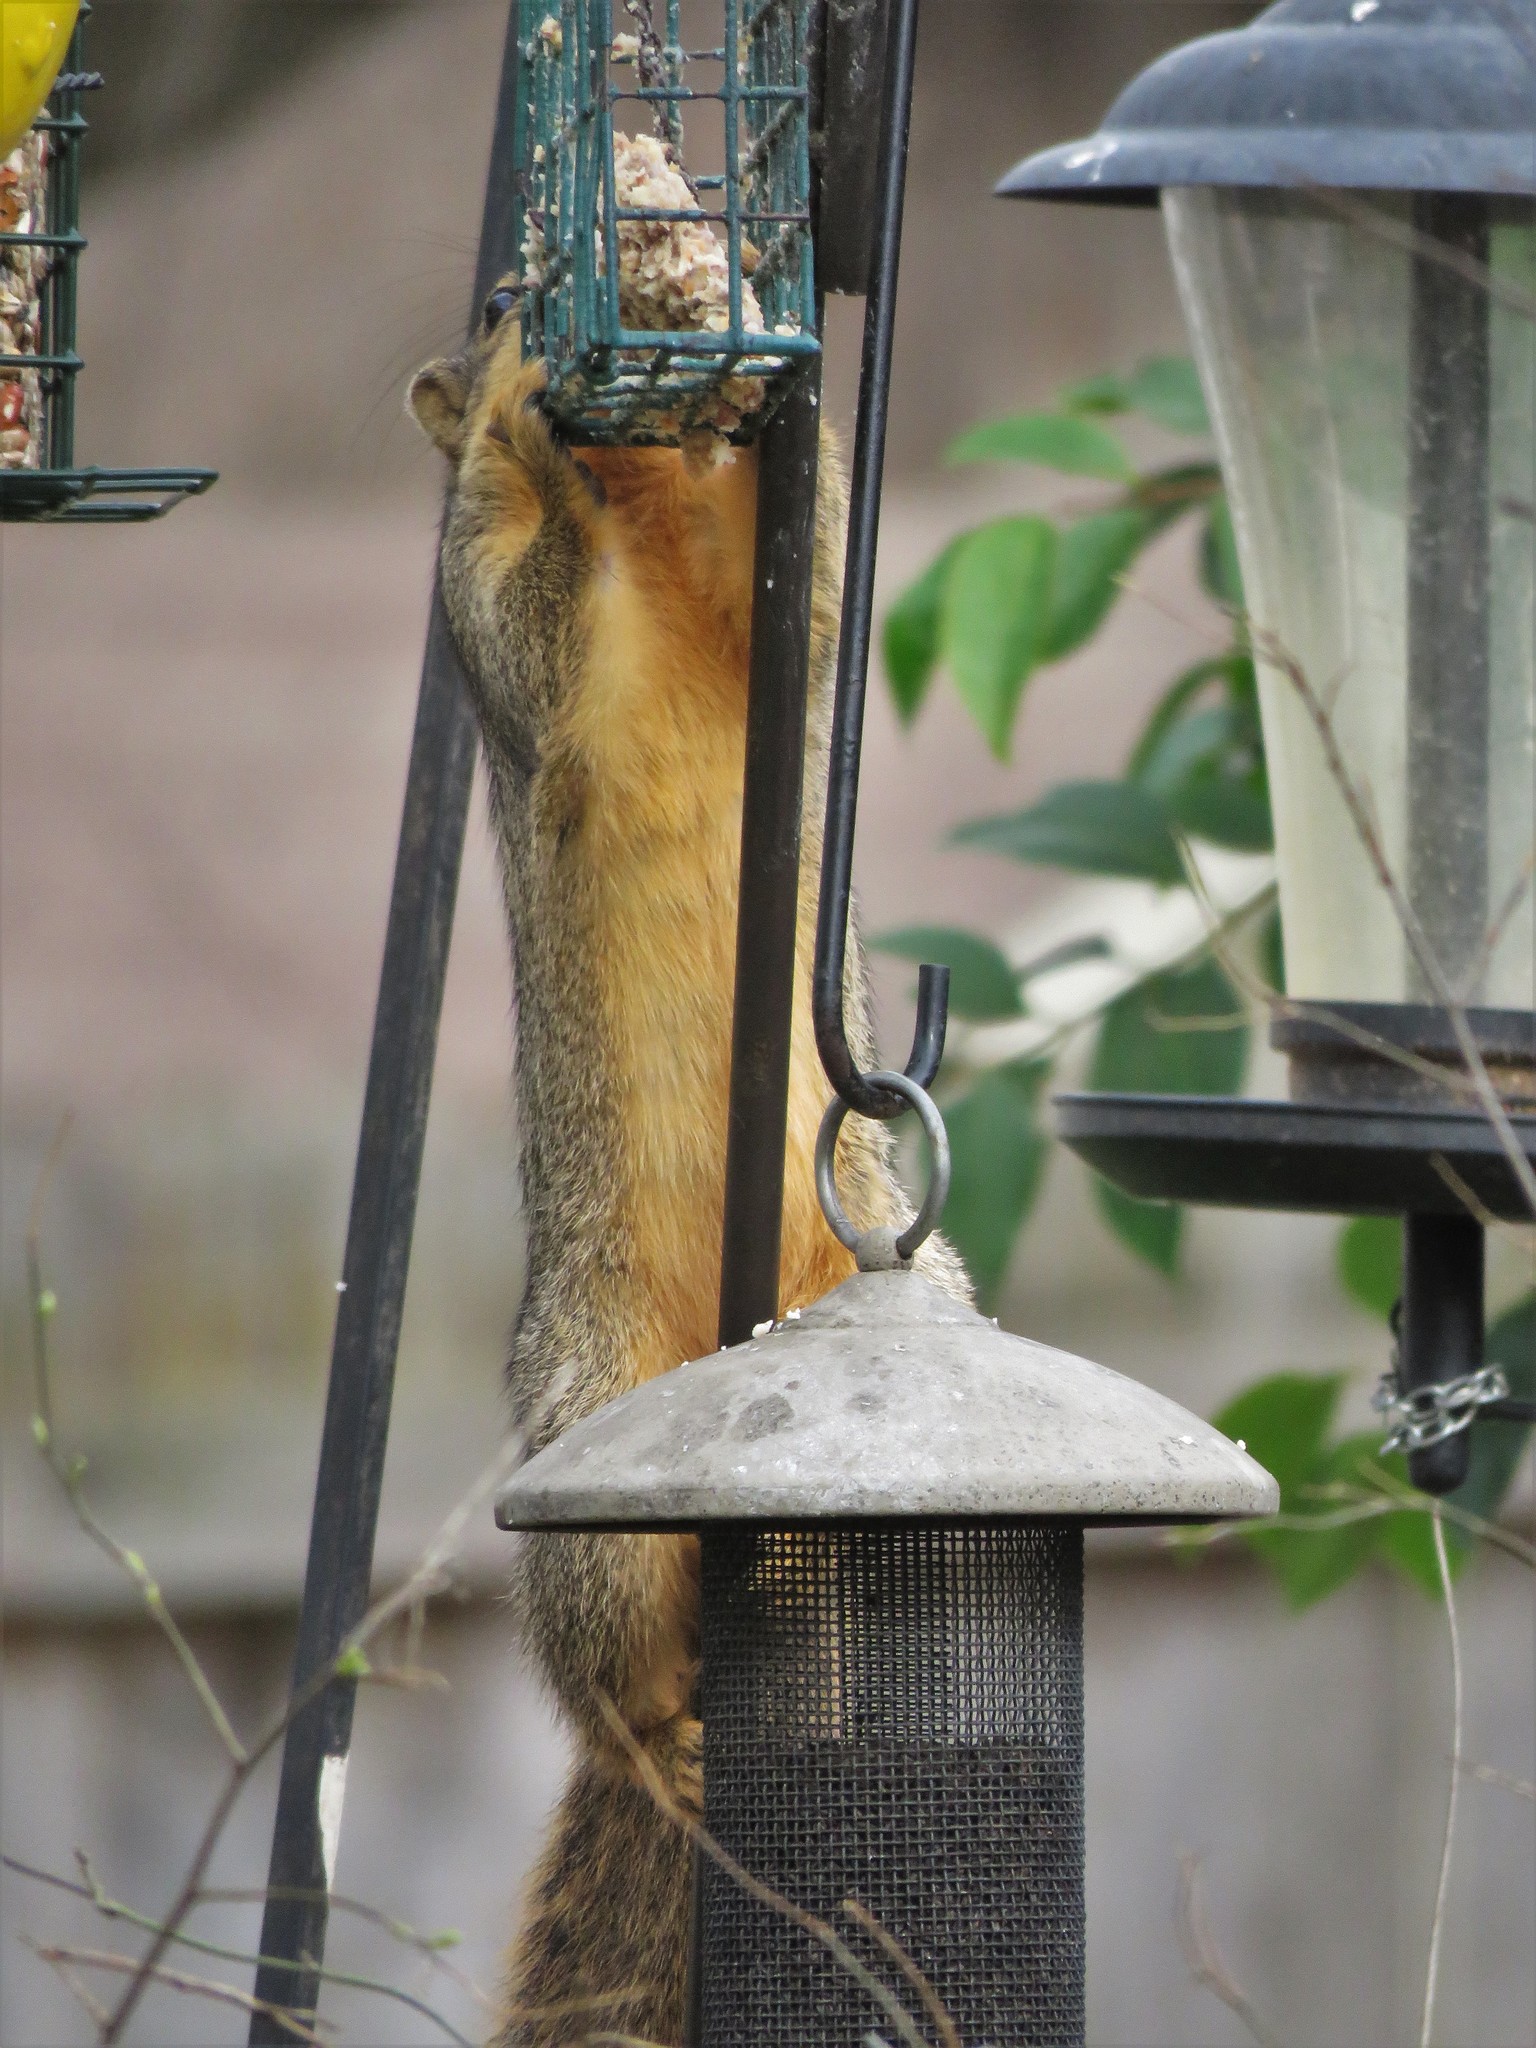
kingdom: Animalia
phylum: Chordata
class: Mammalia
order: Rodentia
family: Sciuridae
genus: Sciurus
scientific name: Sciurus niger
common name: Fox squirrel
